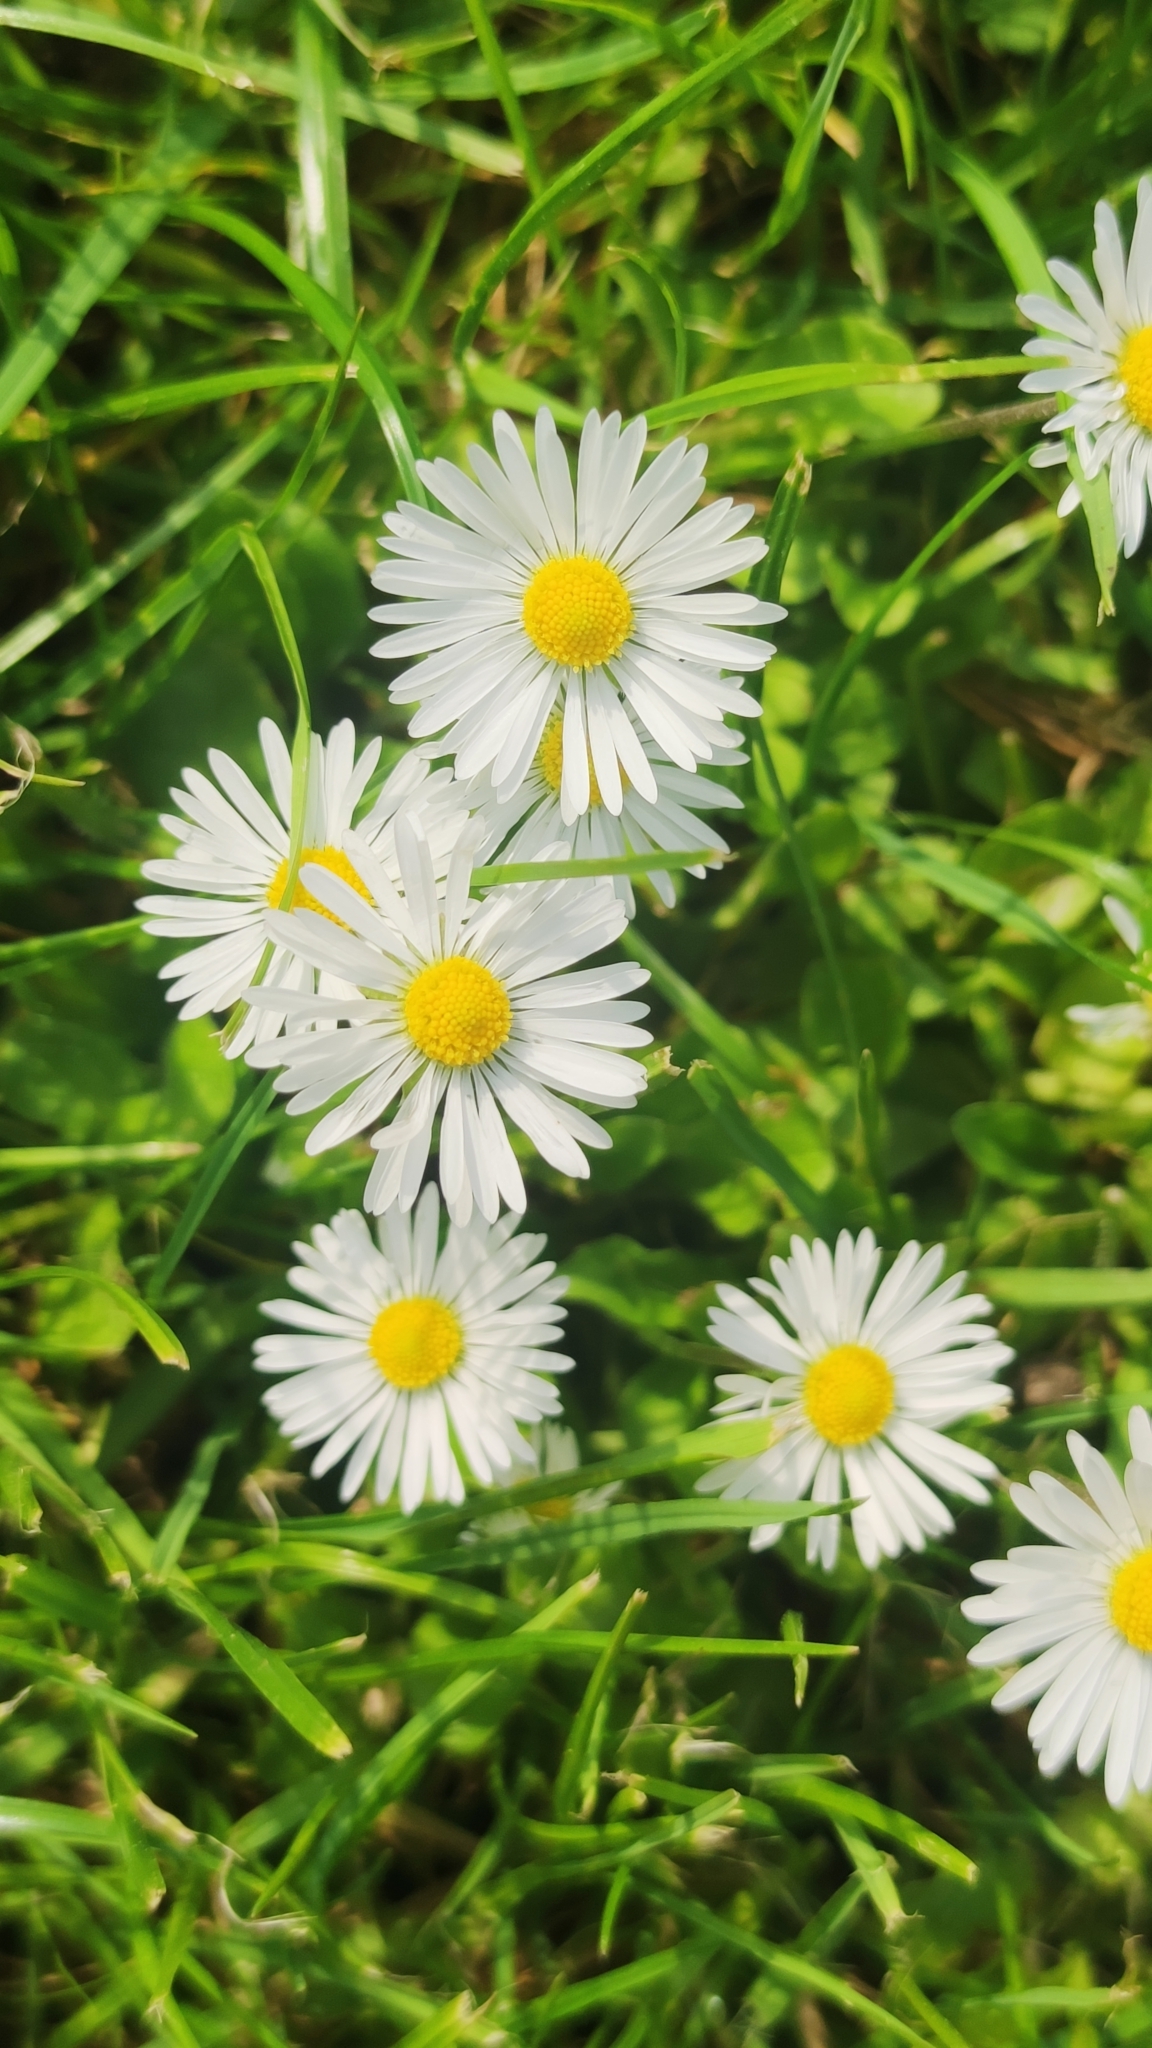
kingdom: Plantae
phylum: Tracheophyta
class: Magnoliopsida
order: Asterales
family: Asteraceae
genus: Bellis
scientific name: Bellis perennis
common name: Lawndaisy
